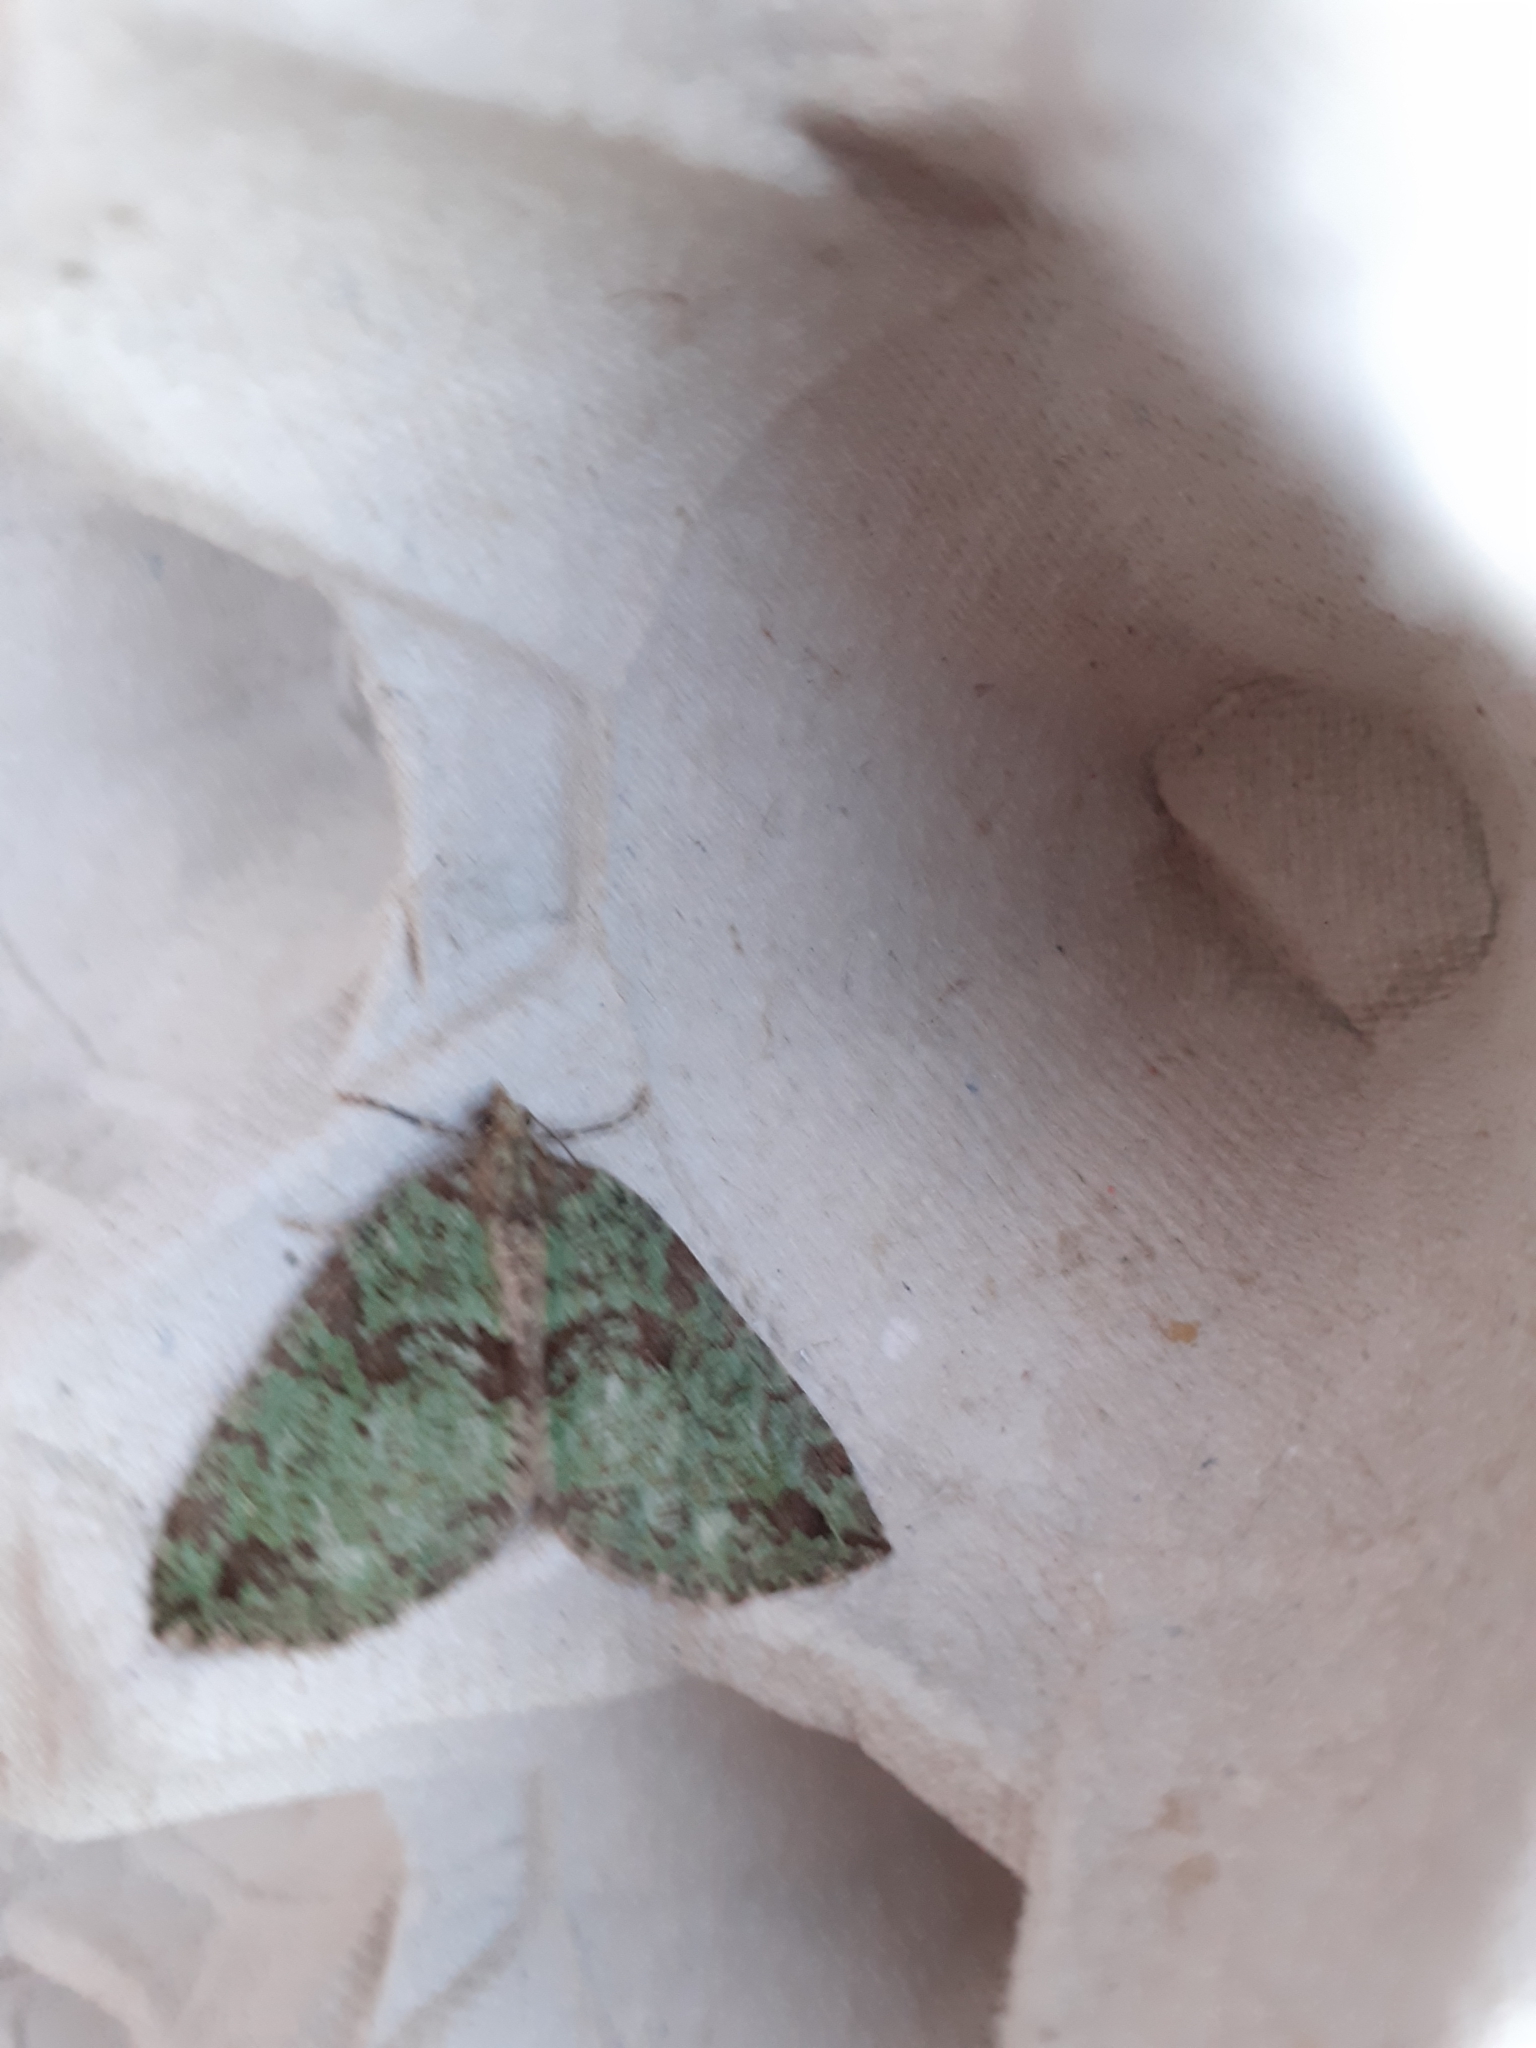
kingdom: Animalia
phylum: Arthropoda
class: Insecta
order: Lepidoptera
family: Geometridae
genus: Hydriomena
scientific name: Hydriomena furcata
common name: July highflyer
